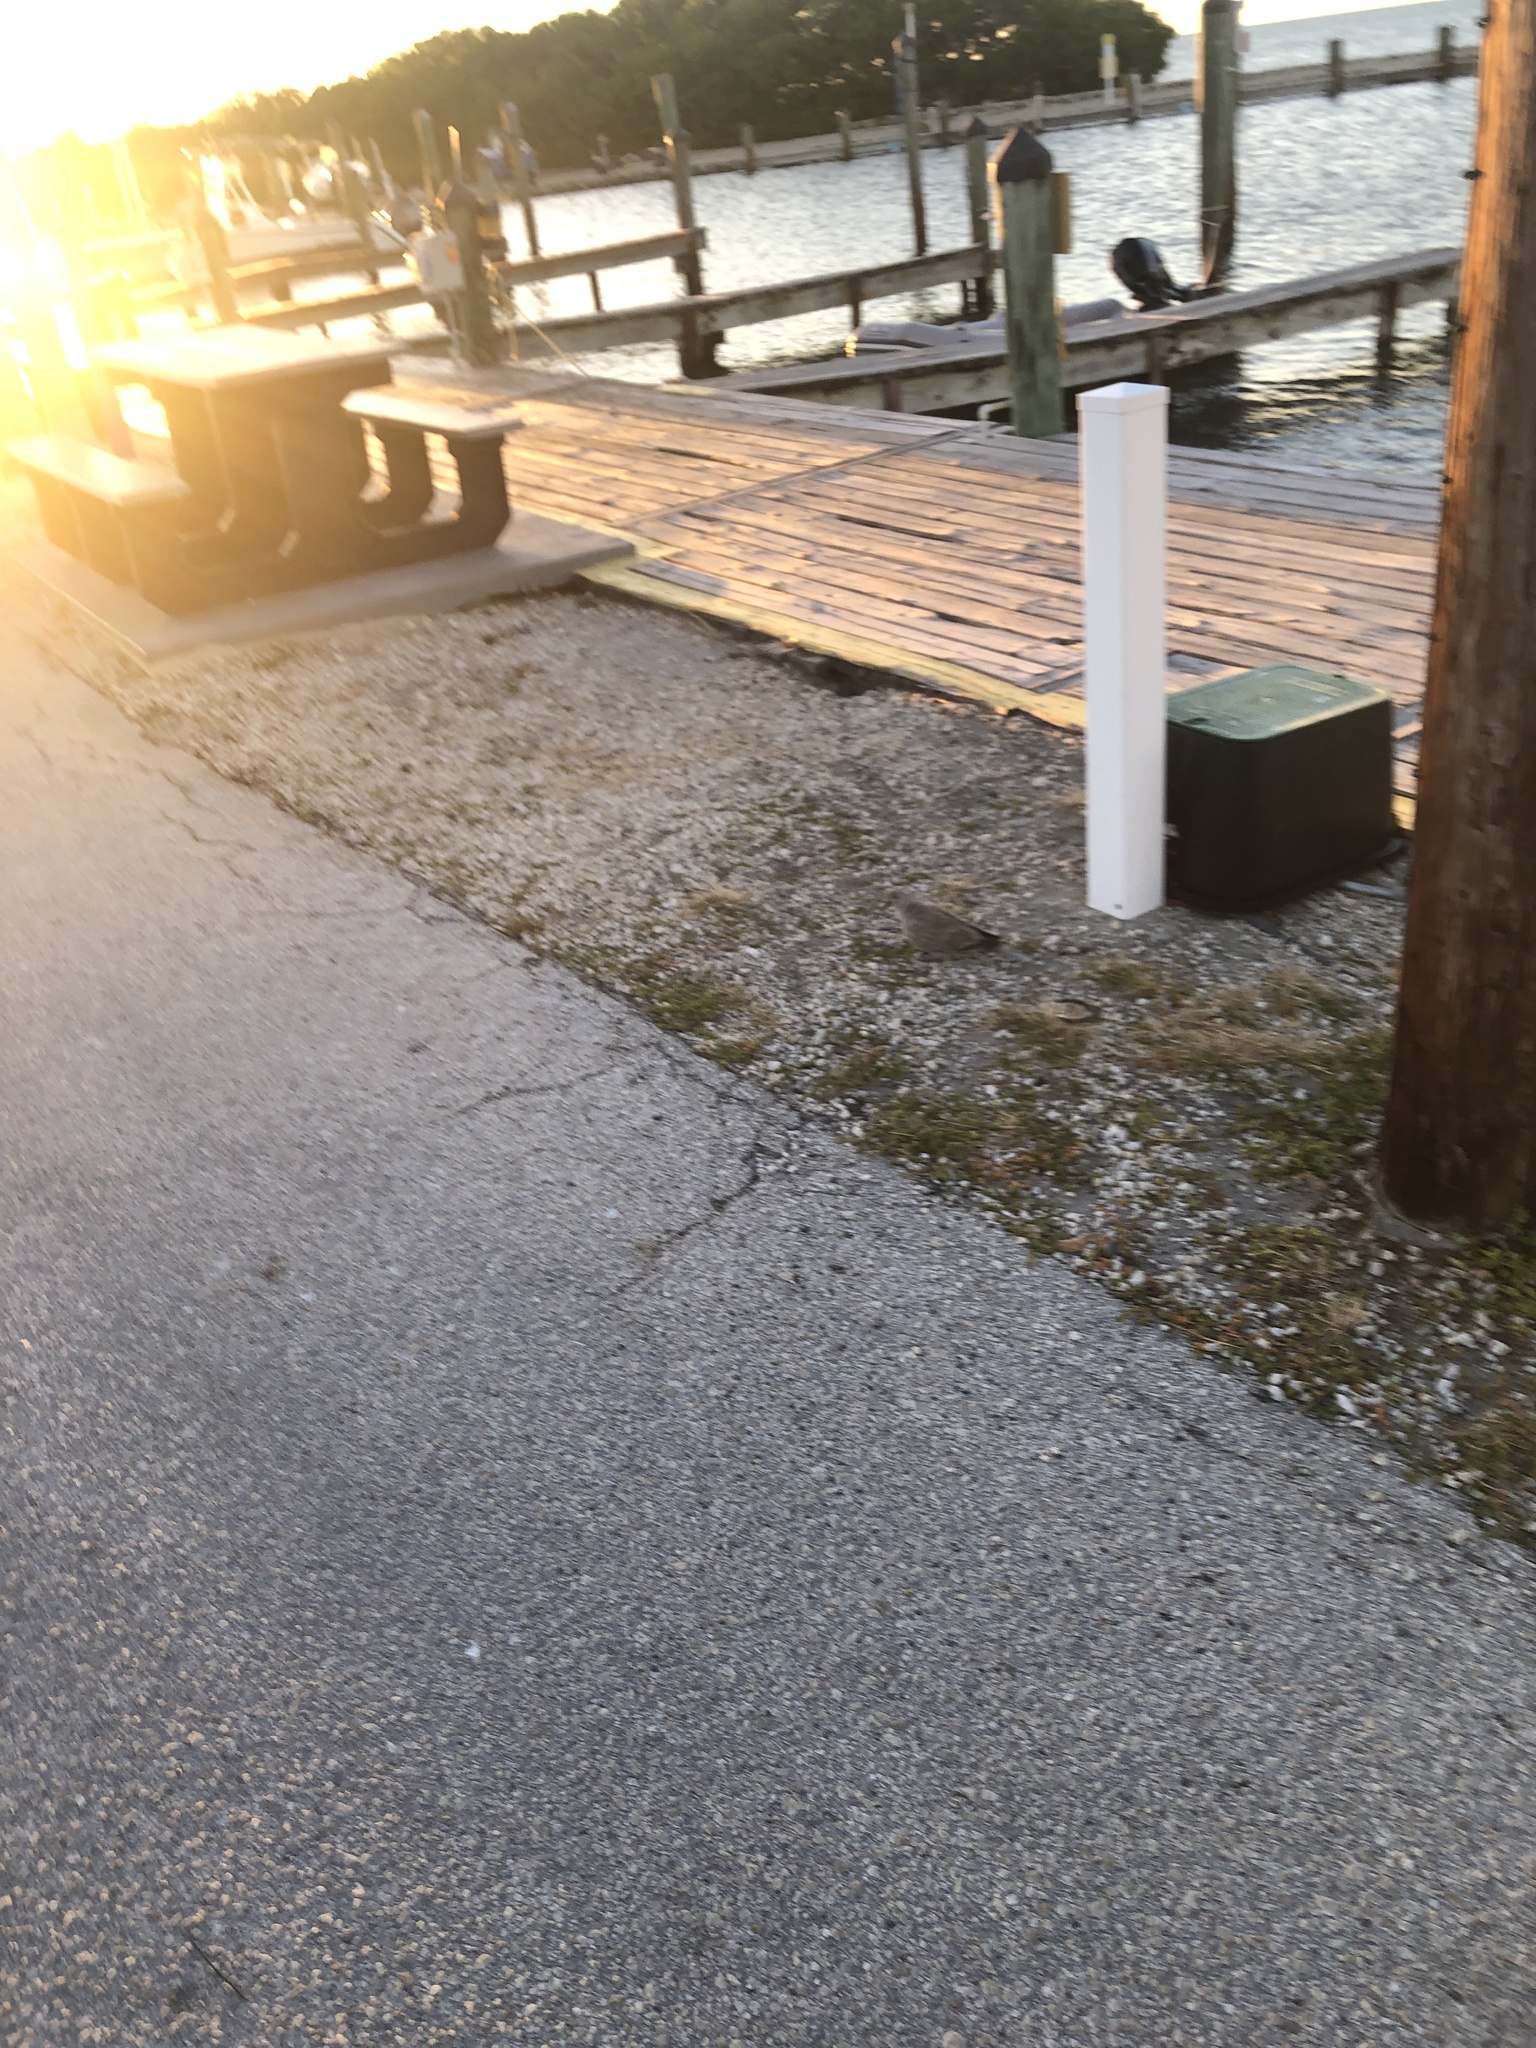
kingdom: Animalia
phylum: Chordata
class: Aves
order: Columbiformes
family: Columbidae
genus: Streptopelia
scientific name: Streptopelia decaocto
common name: Eurasian collared dove
